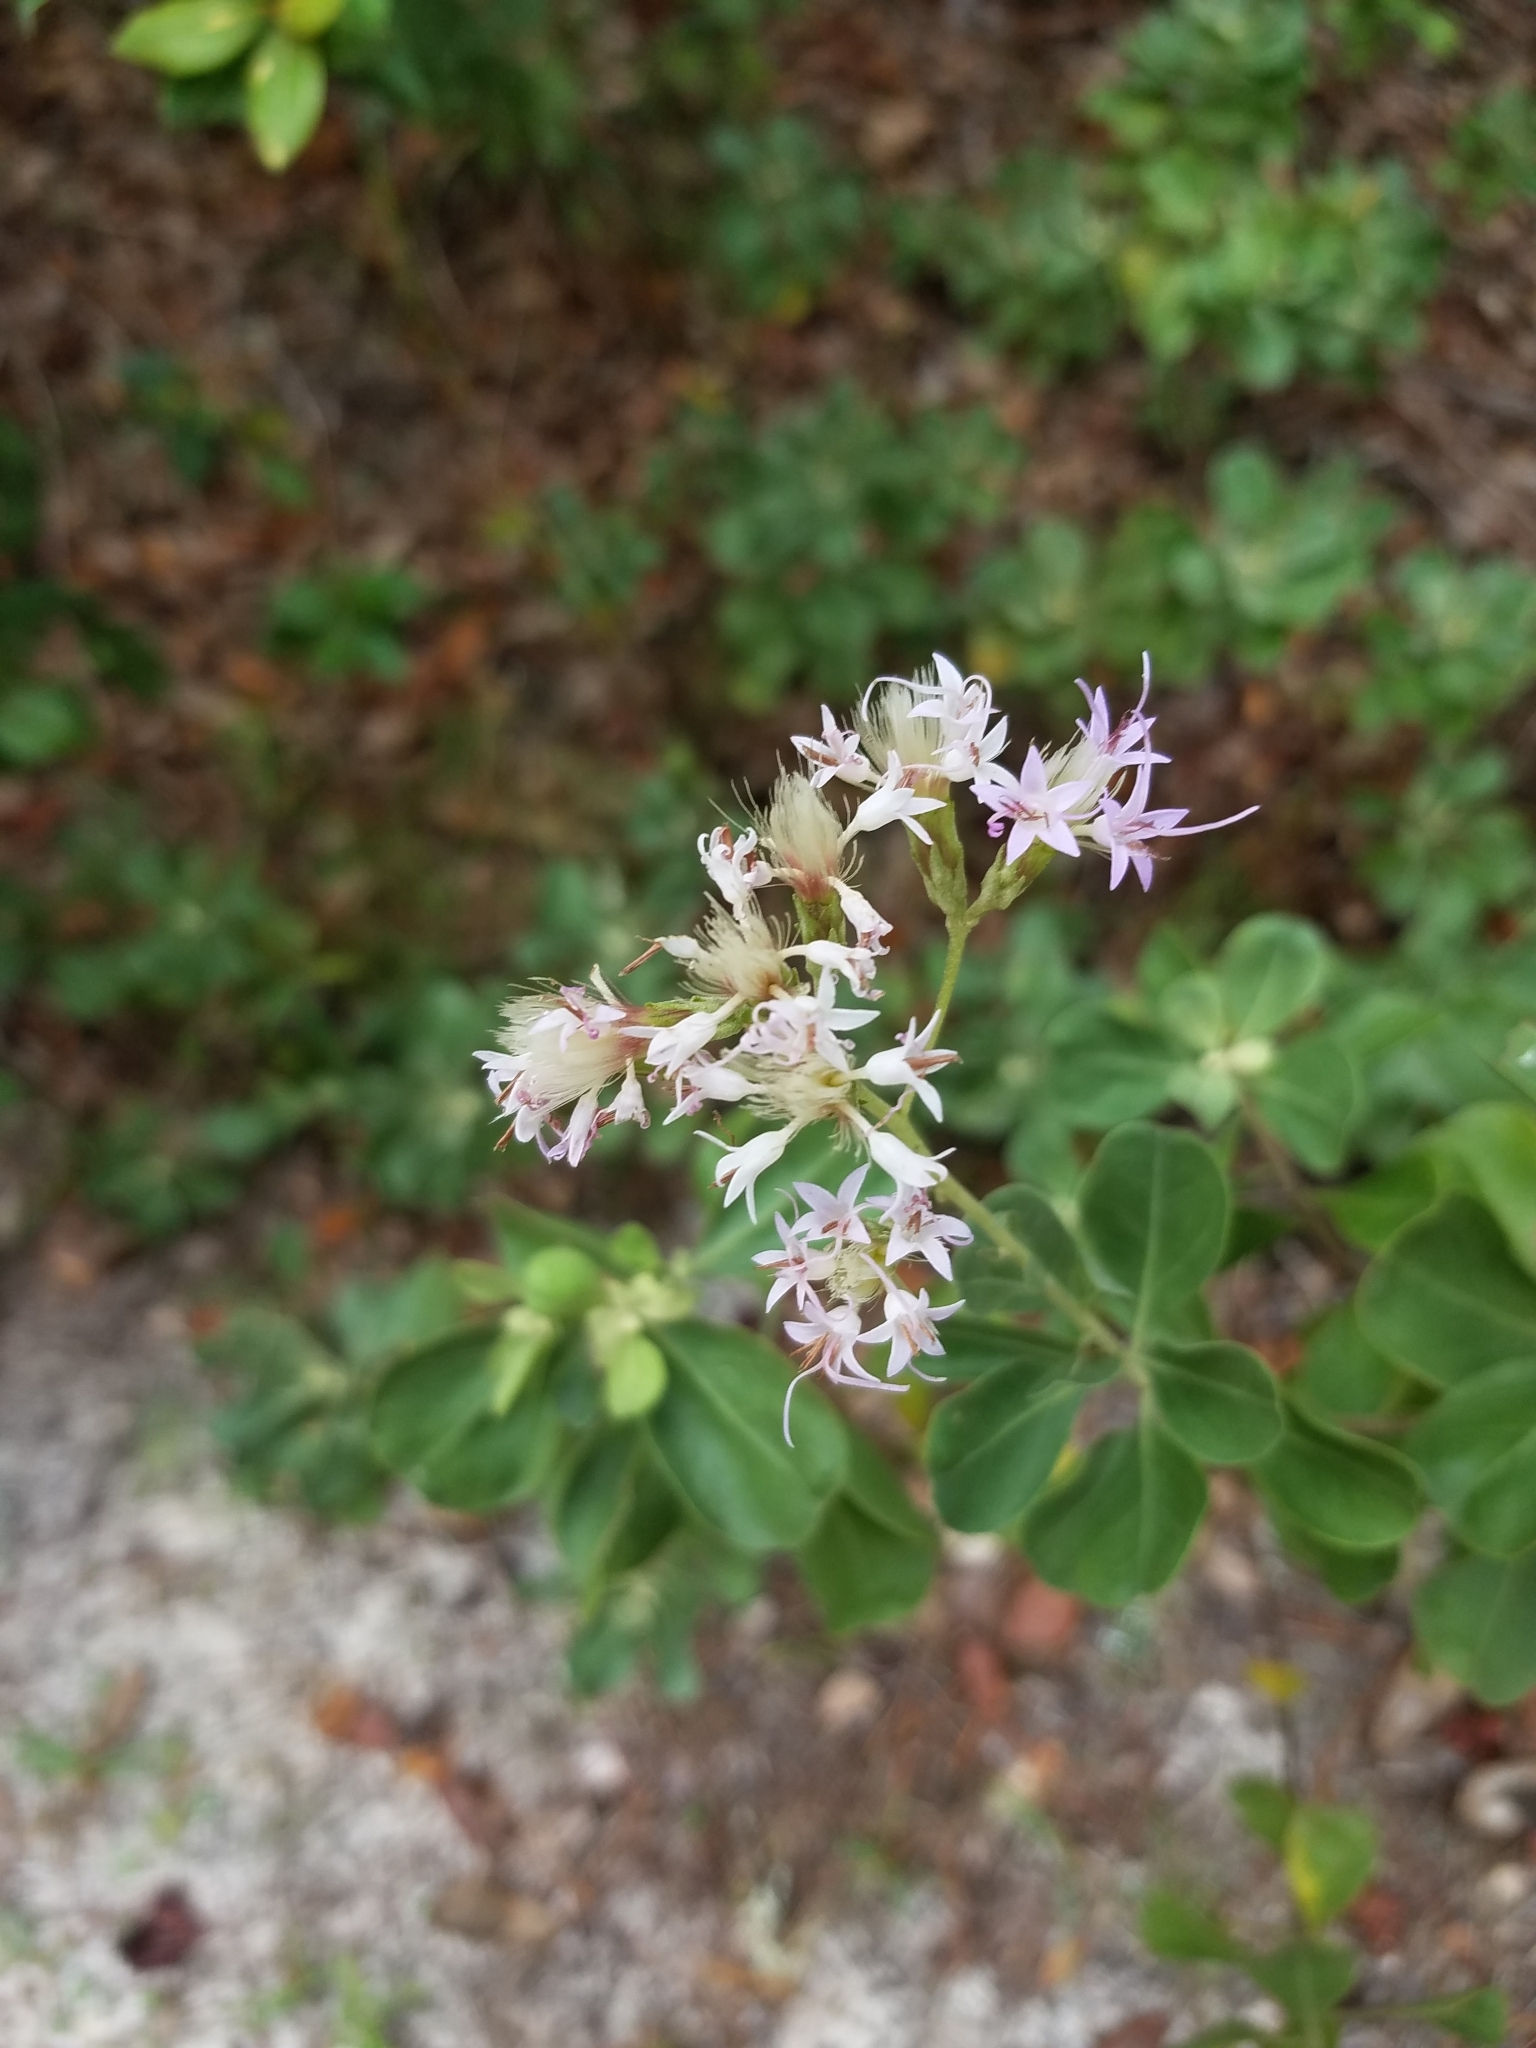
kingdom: Plantae
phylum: Tracheophyta
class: Magnoliopsida
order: Asterales
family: Asteraceae
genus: Garberia
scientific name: Garberia heterophylla
